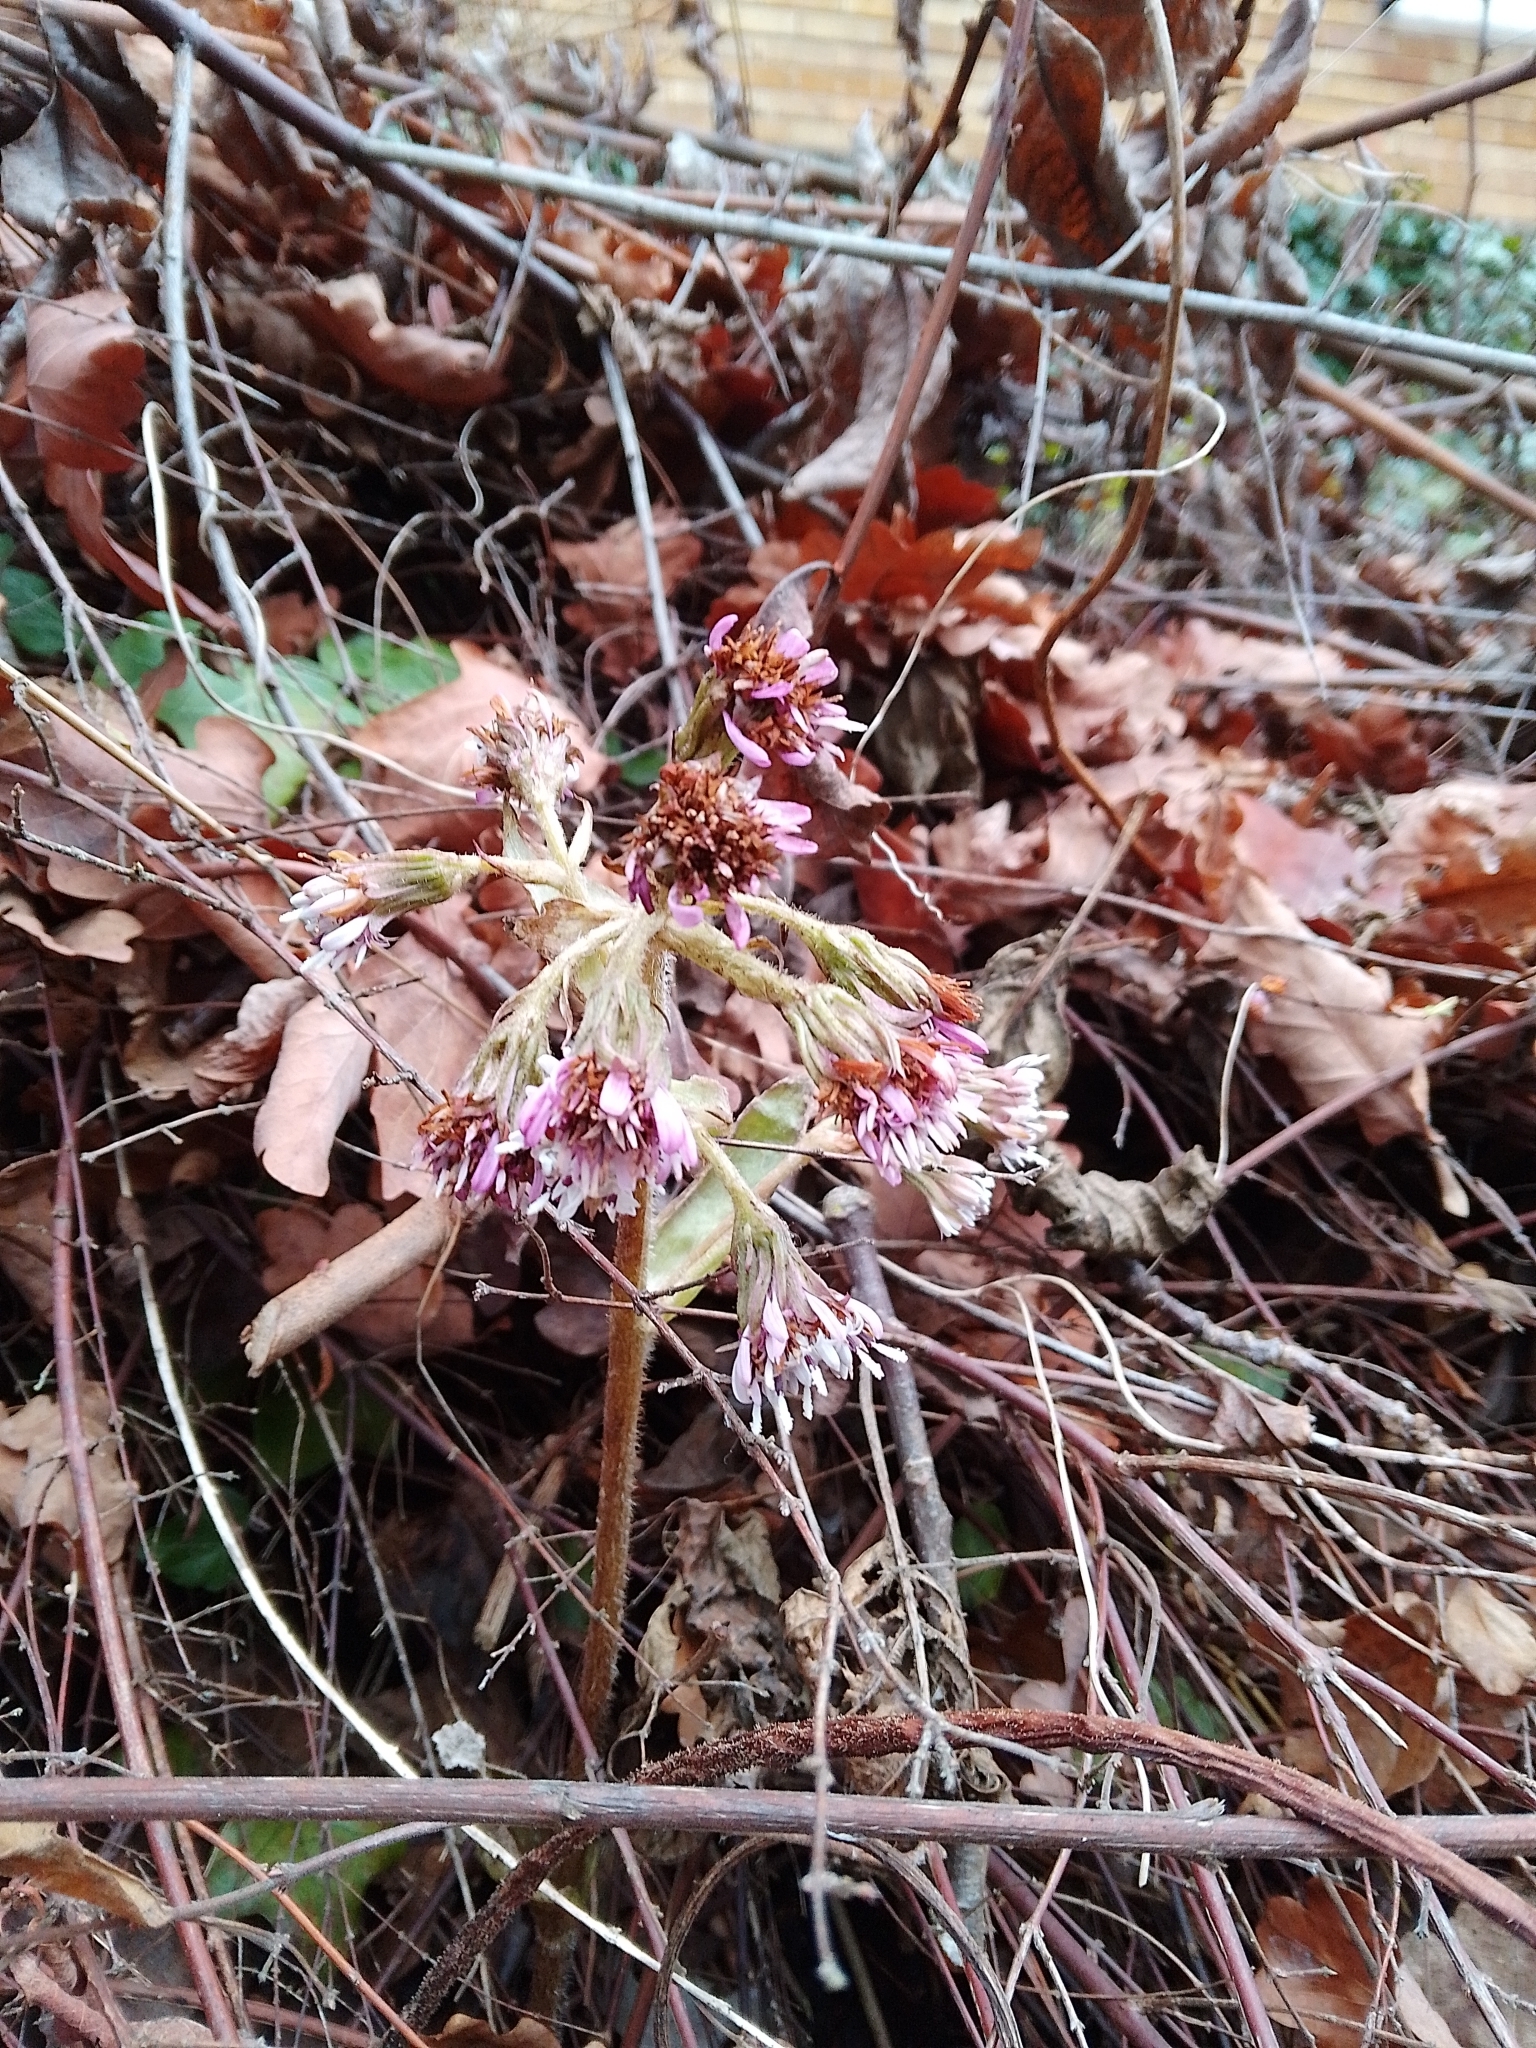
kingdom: Plantae
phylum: Tracheophyta
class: Magnoliopsida
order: Asterales
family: Asteraceae
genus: Petasites
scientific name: Petasites pyrenaicus
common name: Winter heliotrope
